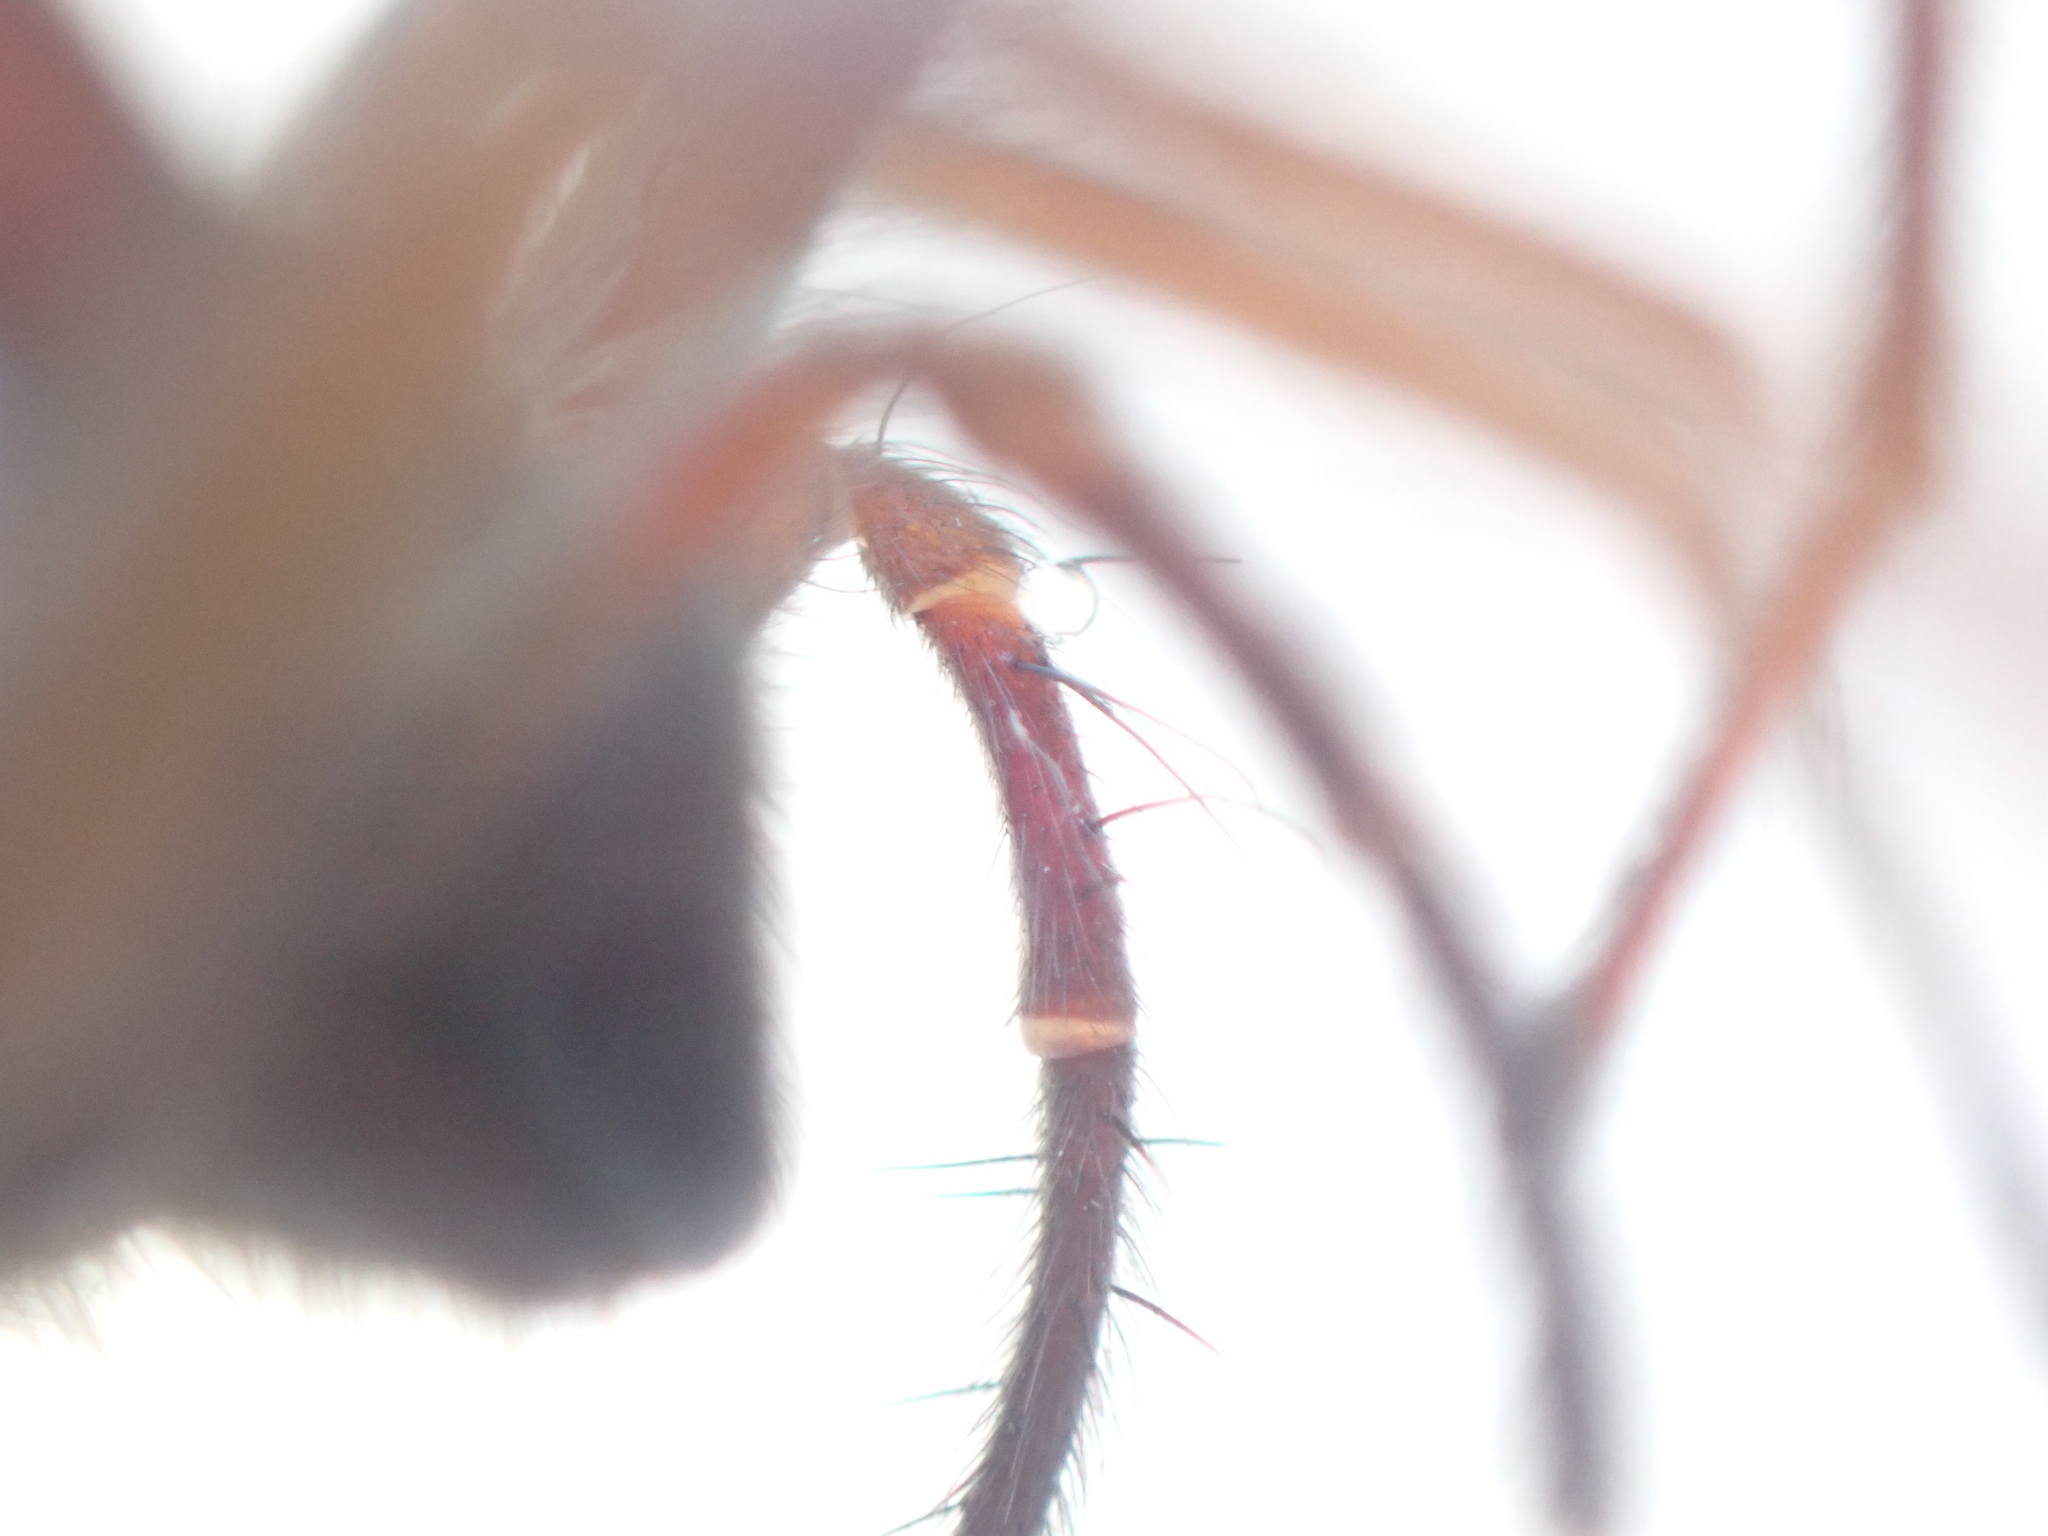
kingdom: Animalia
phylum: Arthropoda
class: Arachnida
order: Araneae
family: Agelenidae
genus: Eratigena
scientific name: Eratigena duellica
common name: Giant house spider
